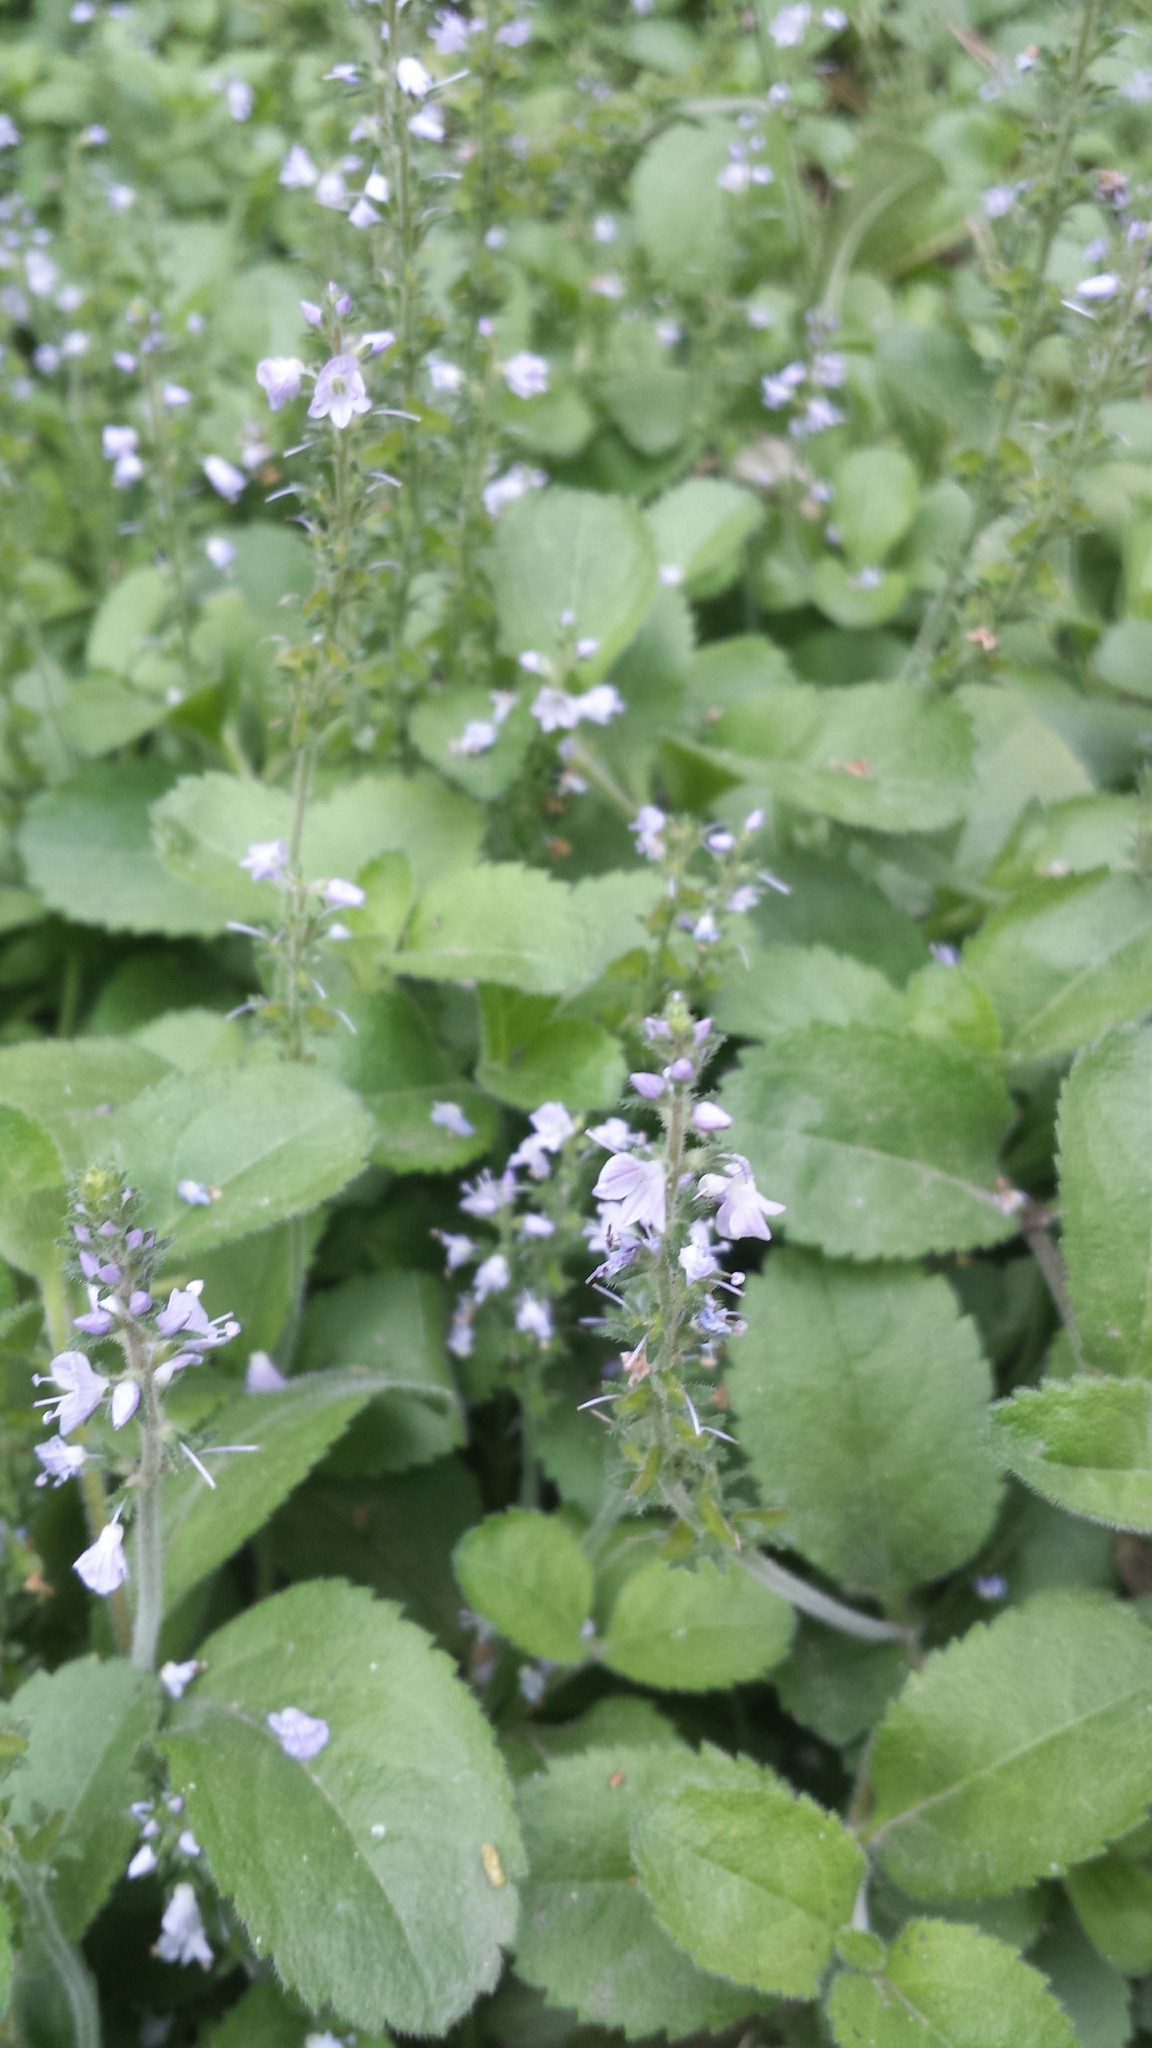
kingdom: Plantae
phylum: Tracheophyta
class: Magnoliopsida
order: Lamiales
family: Plantaginaceae
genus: Veronica
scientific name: Veronica officinalis
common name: Common speedwell
